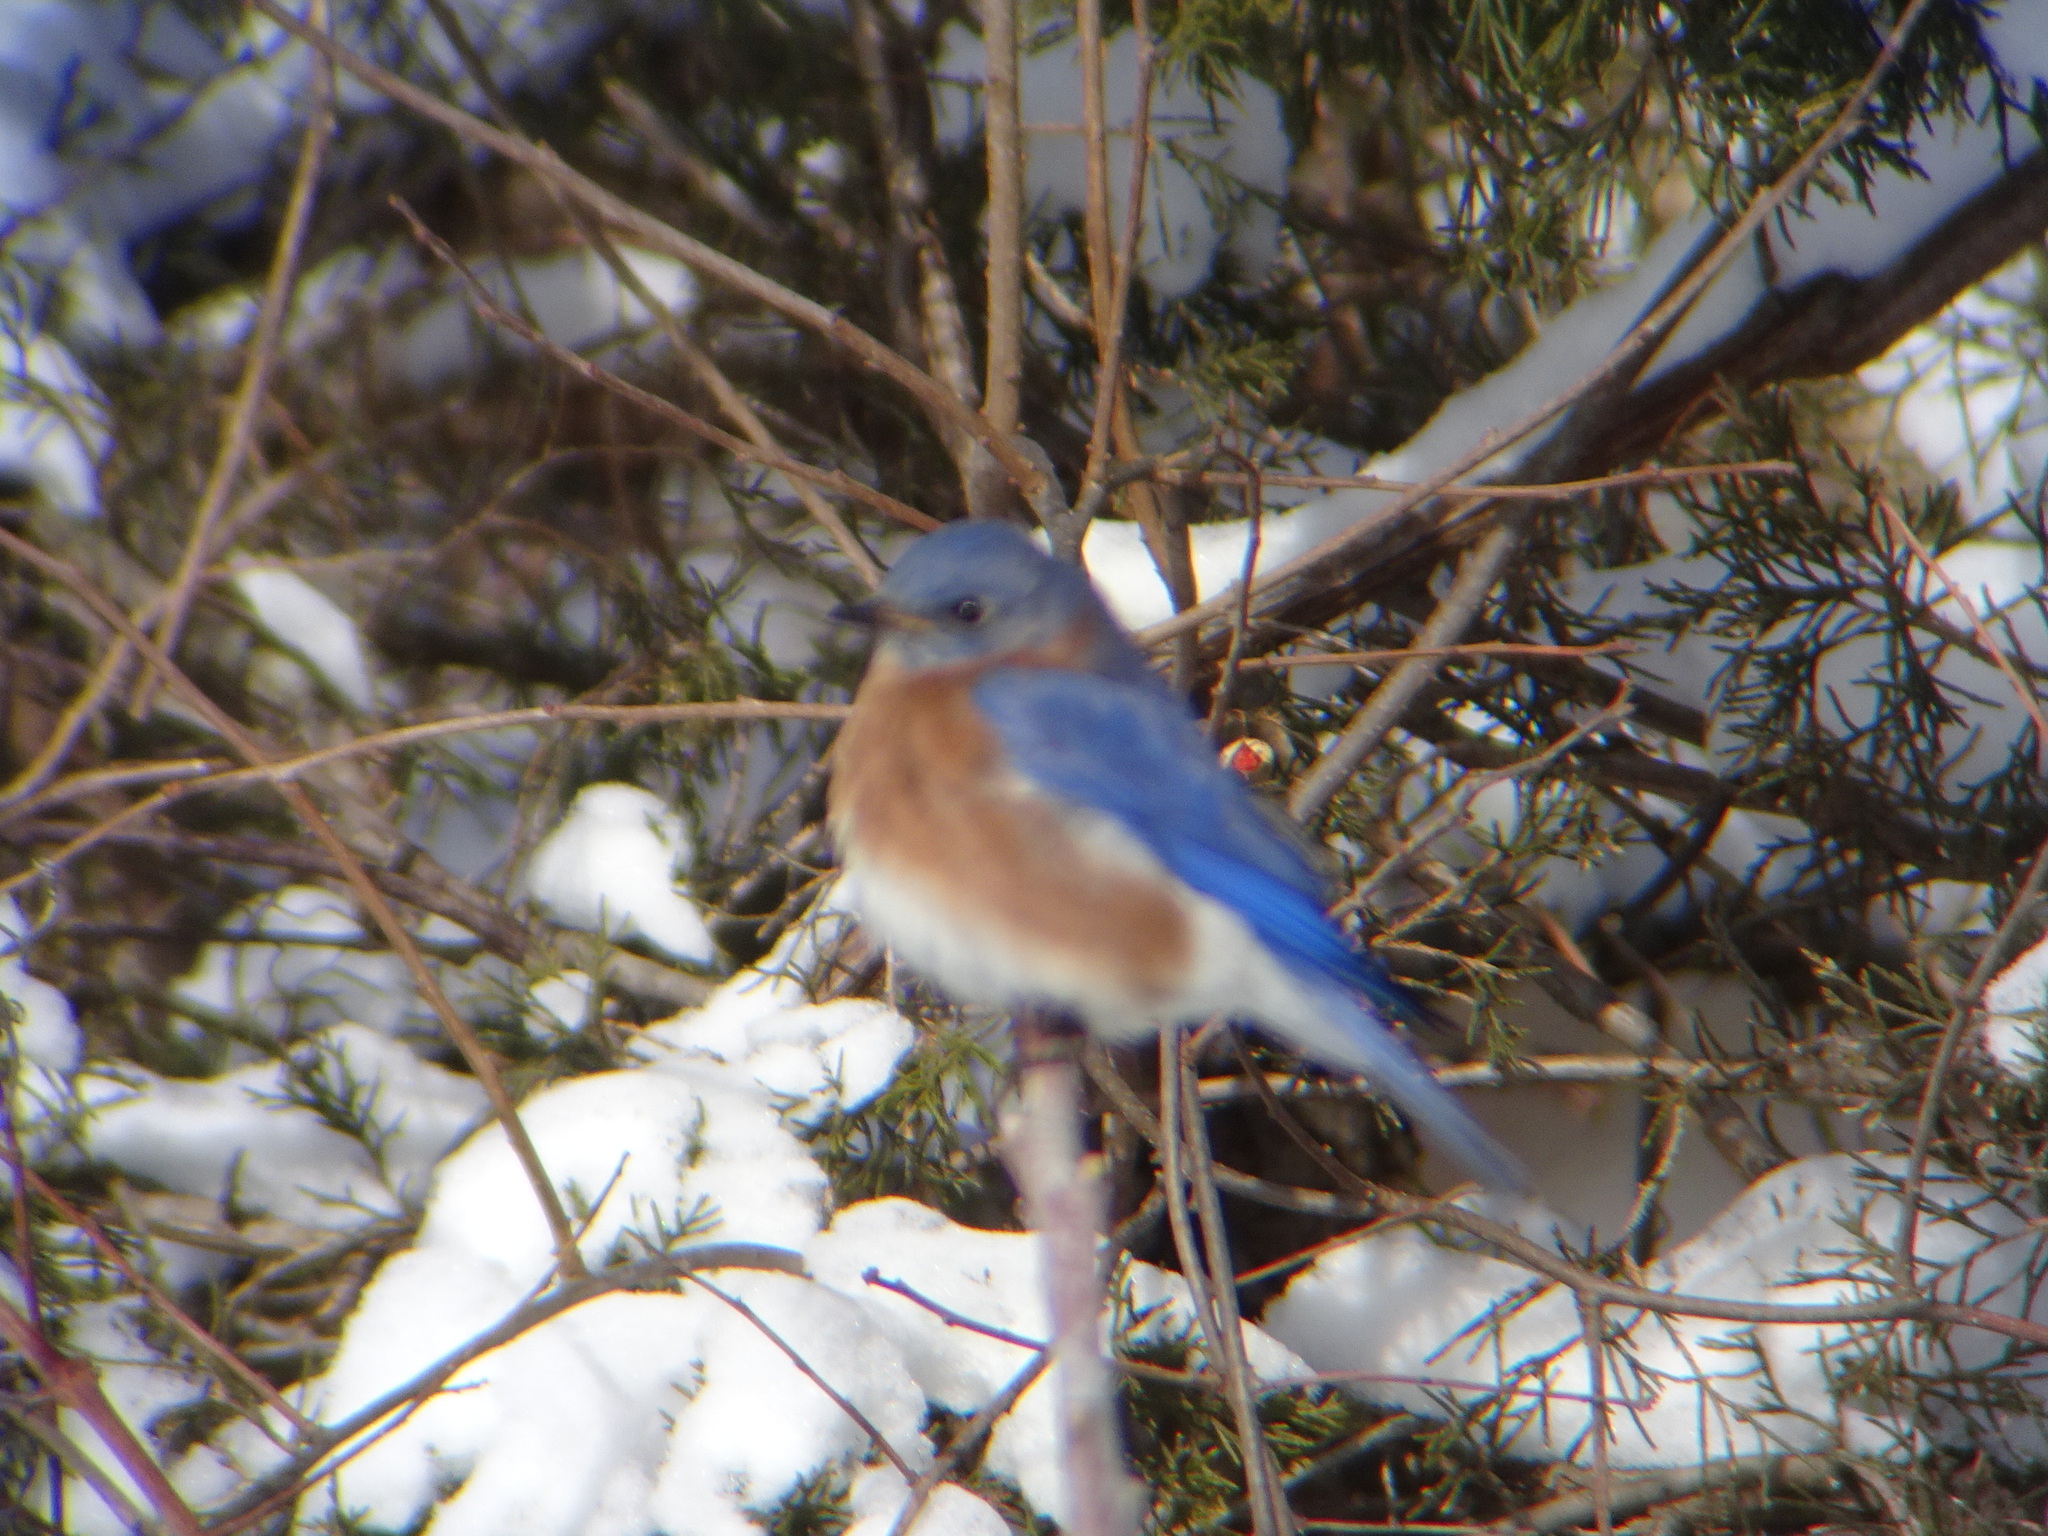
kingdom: Animalia
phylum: Chordata
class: Aves
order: Passeriformes
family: Turdidae
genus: Sialia
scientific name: Sialia sialis
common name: Eastern bluebird
